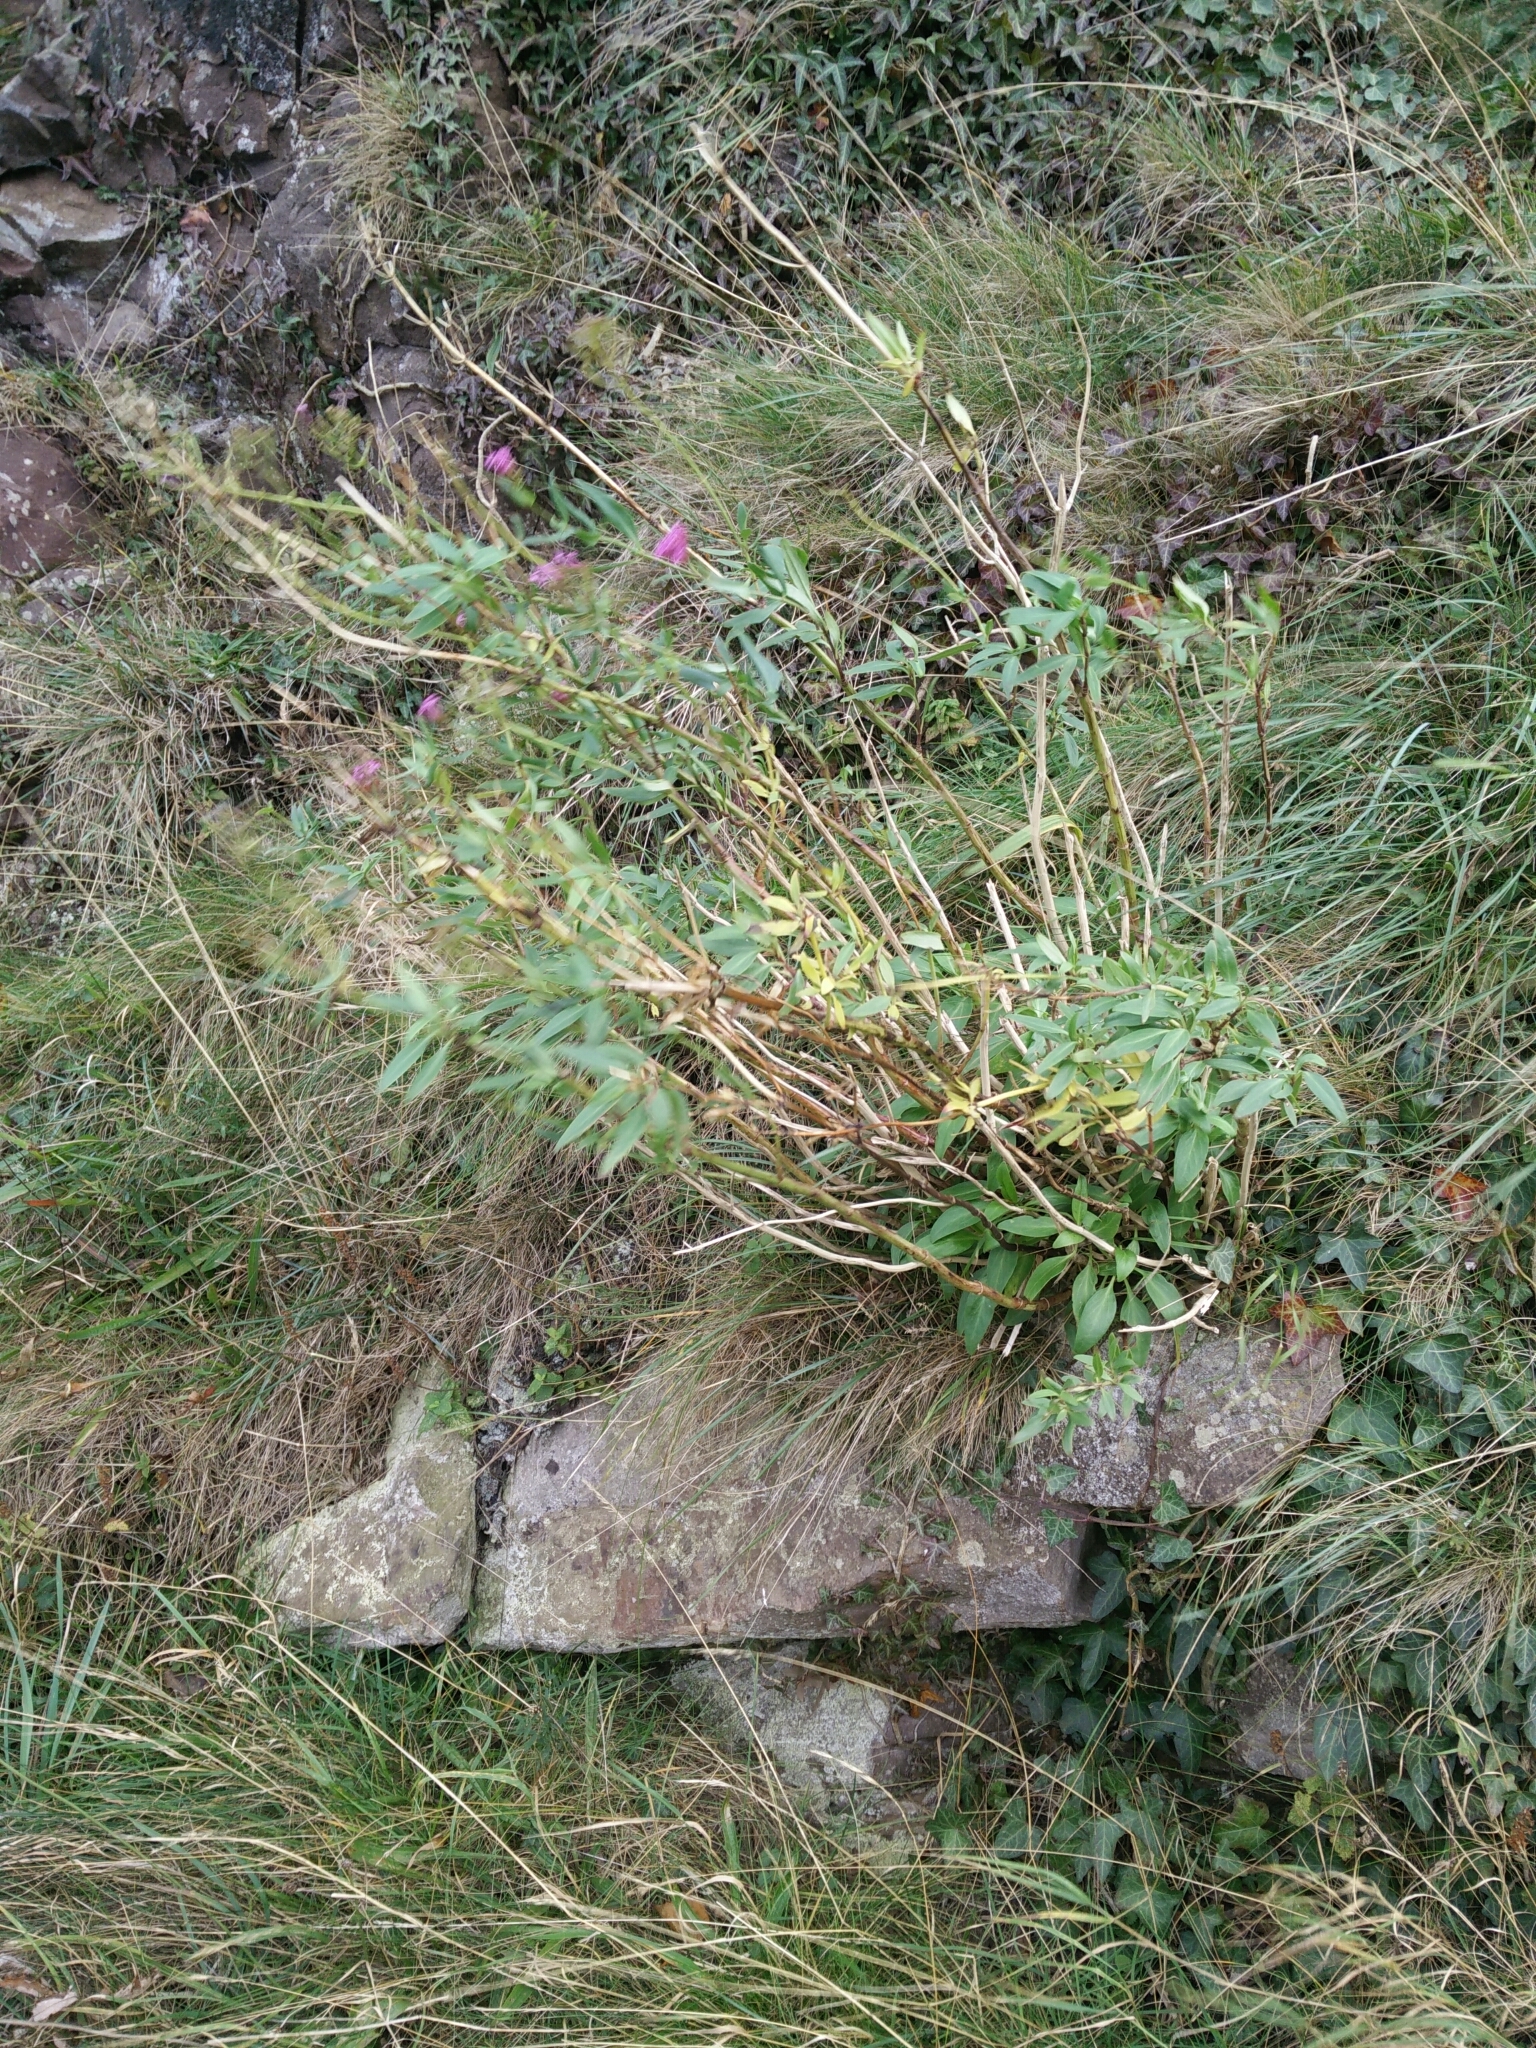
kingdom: Plantae
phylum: Tracheophyta
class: Magnoliopsida
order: Dipsacales
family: Caprifoliaceae
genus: Centranthus
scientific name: Centranthus ruber
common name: Red valerian
